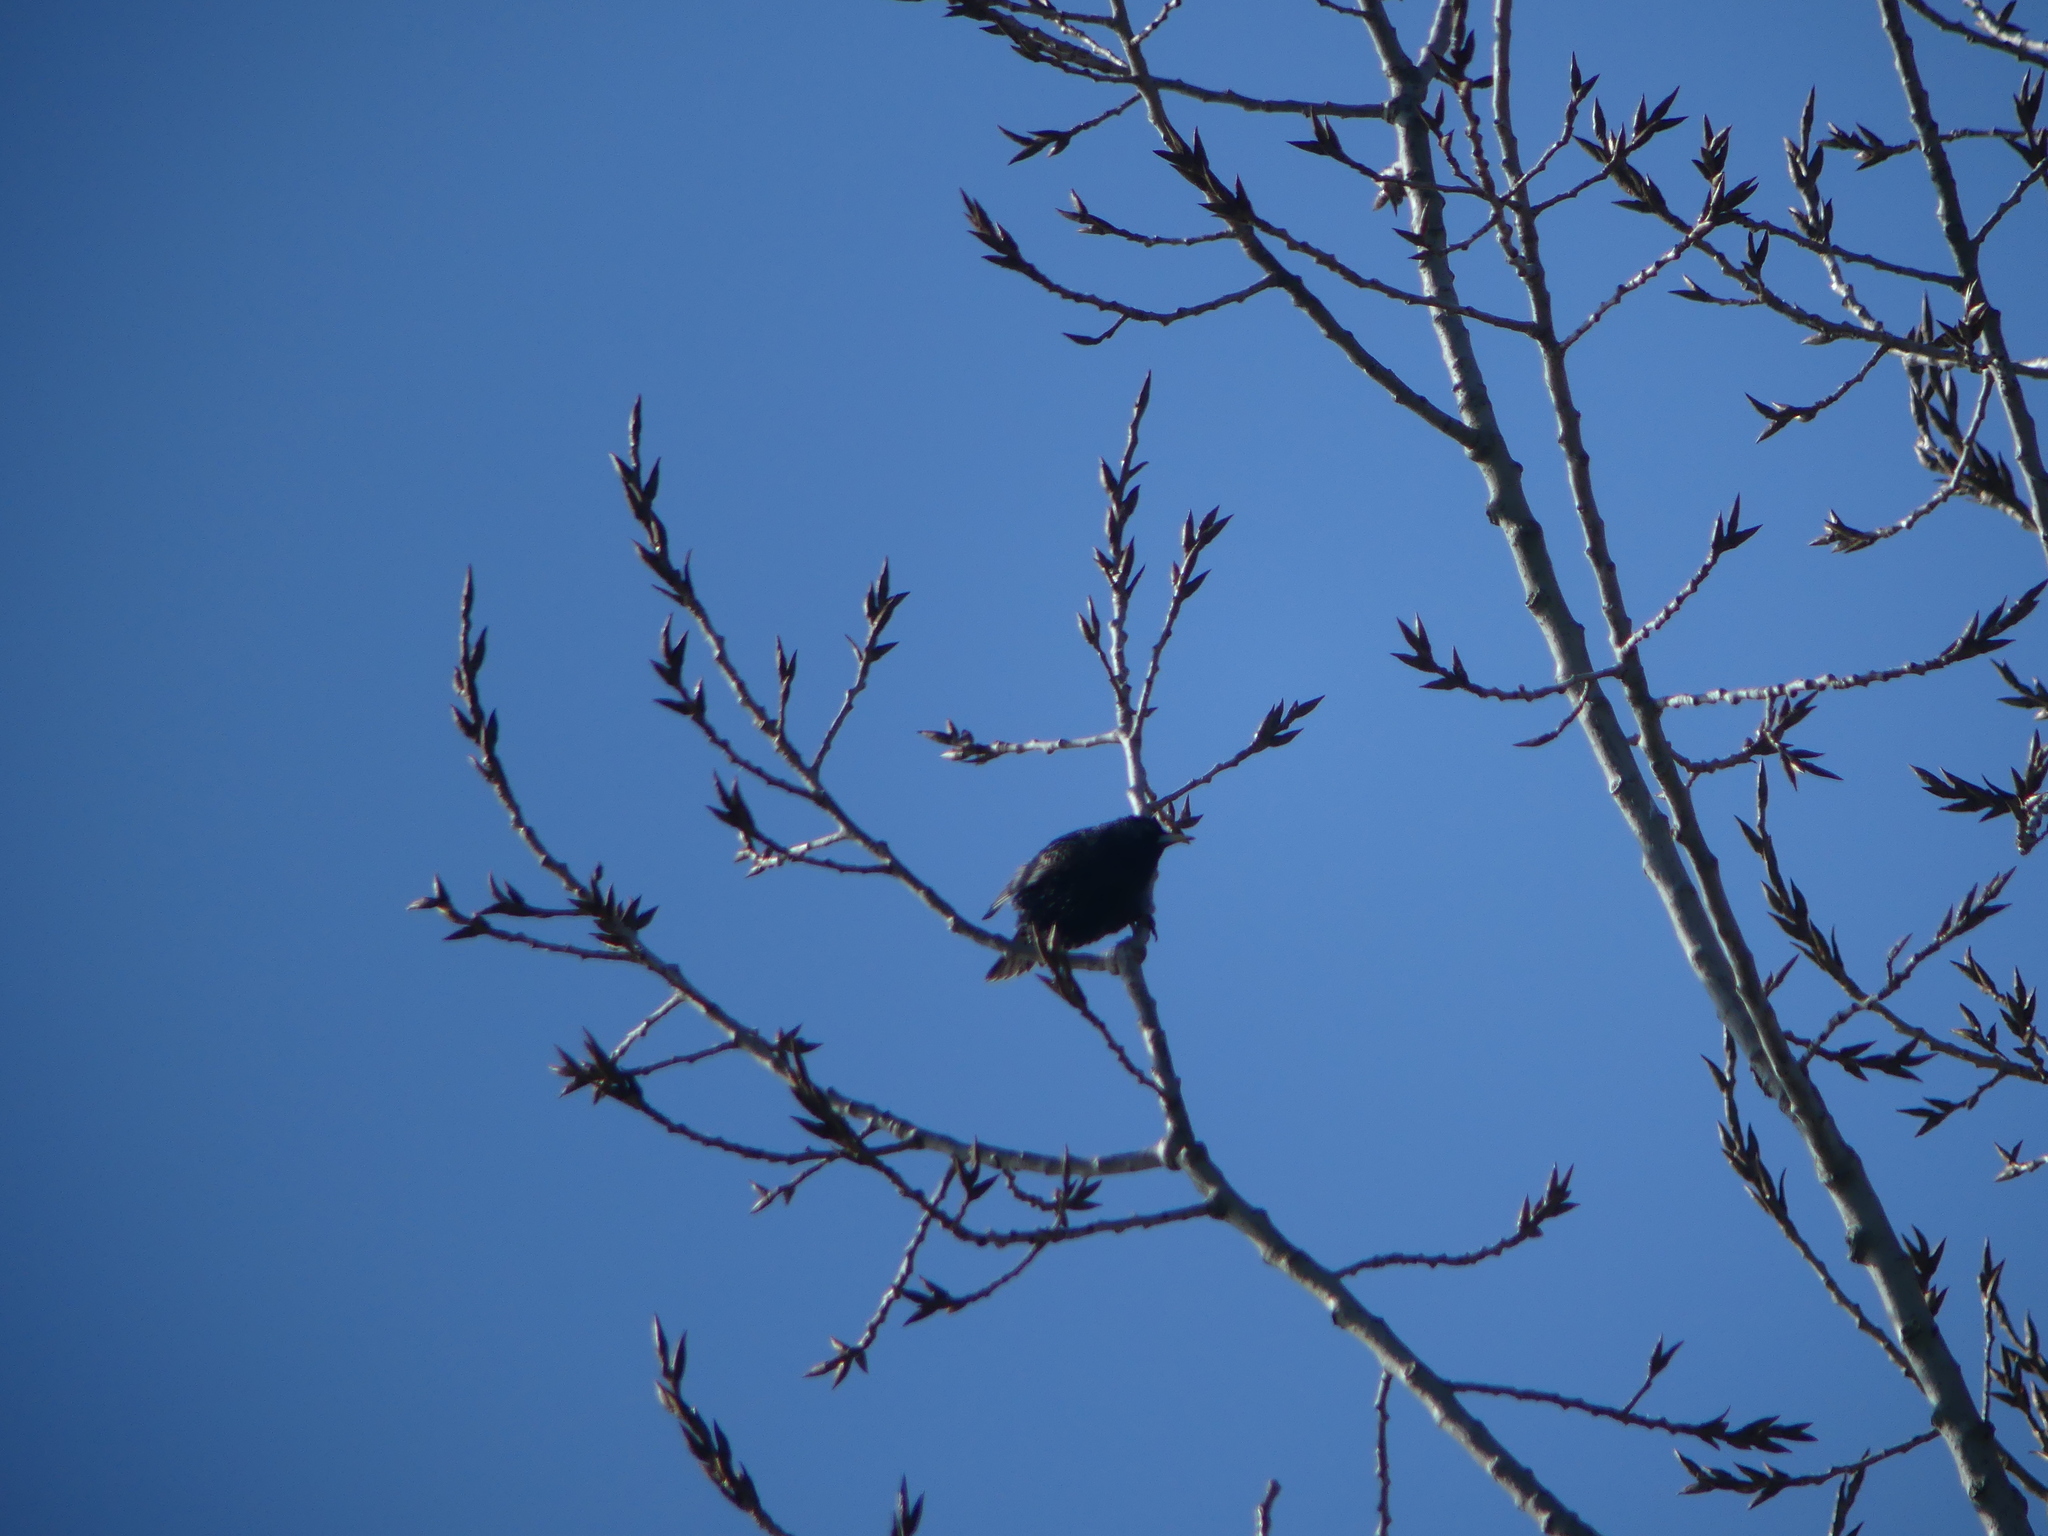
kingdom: Animalia
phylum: Chordata
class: Aves
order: Passeriformes
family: Sturnidae
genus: Sturnus
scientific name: Sturnus vulgaris
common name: Common starling
